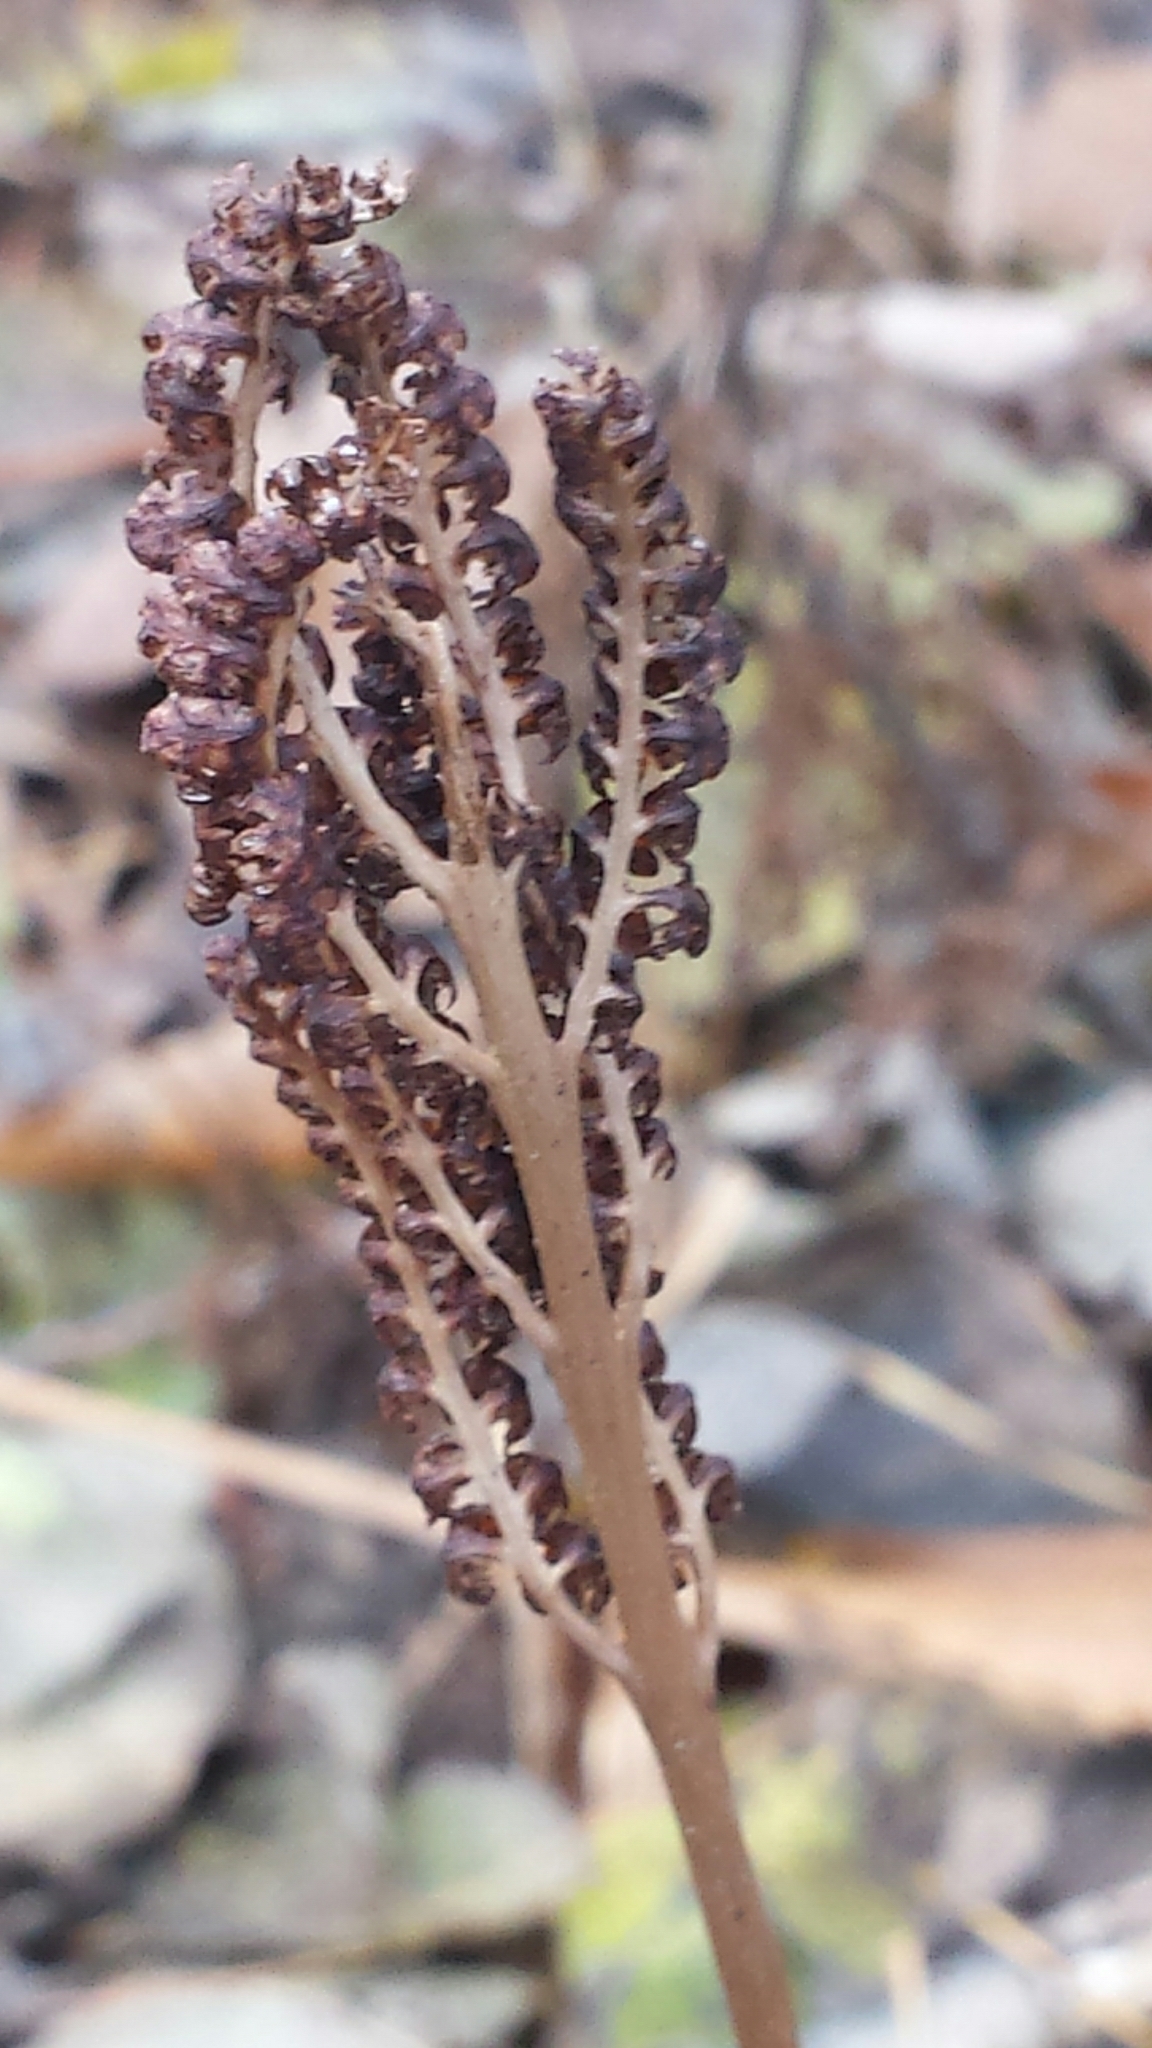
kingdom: Plantae
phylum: Tracheophyta
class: Polypodiopsida
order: Polypodiales
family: Onocleaceae
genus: Onoclea
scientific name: Onoclea sensibilis
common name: Sensitive fern
